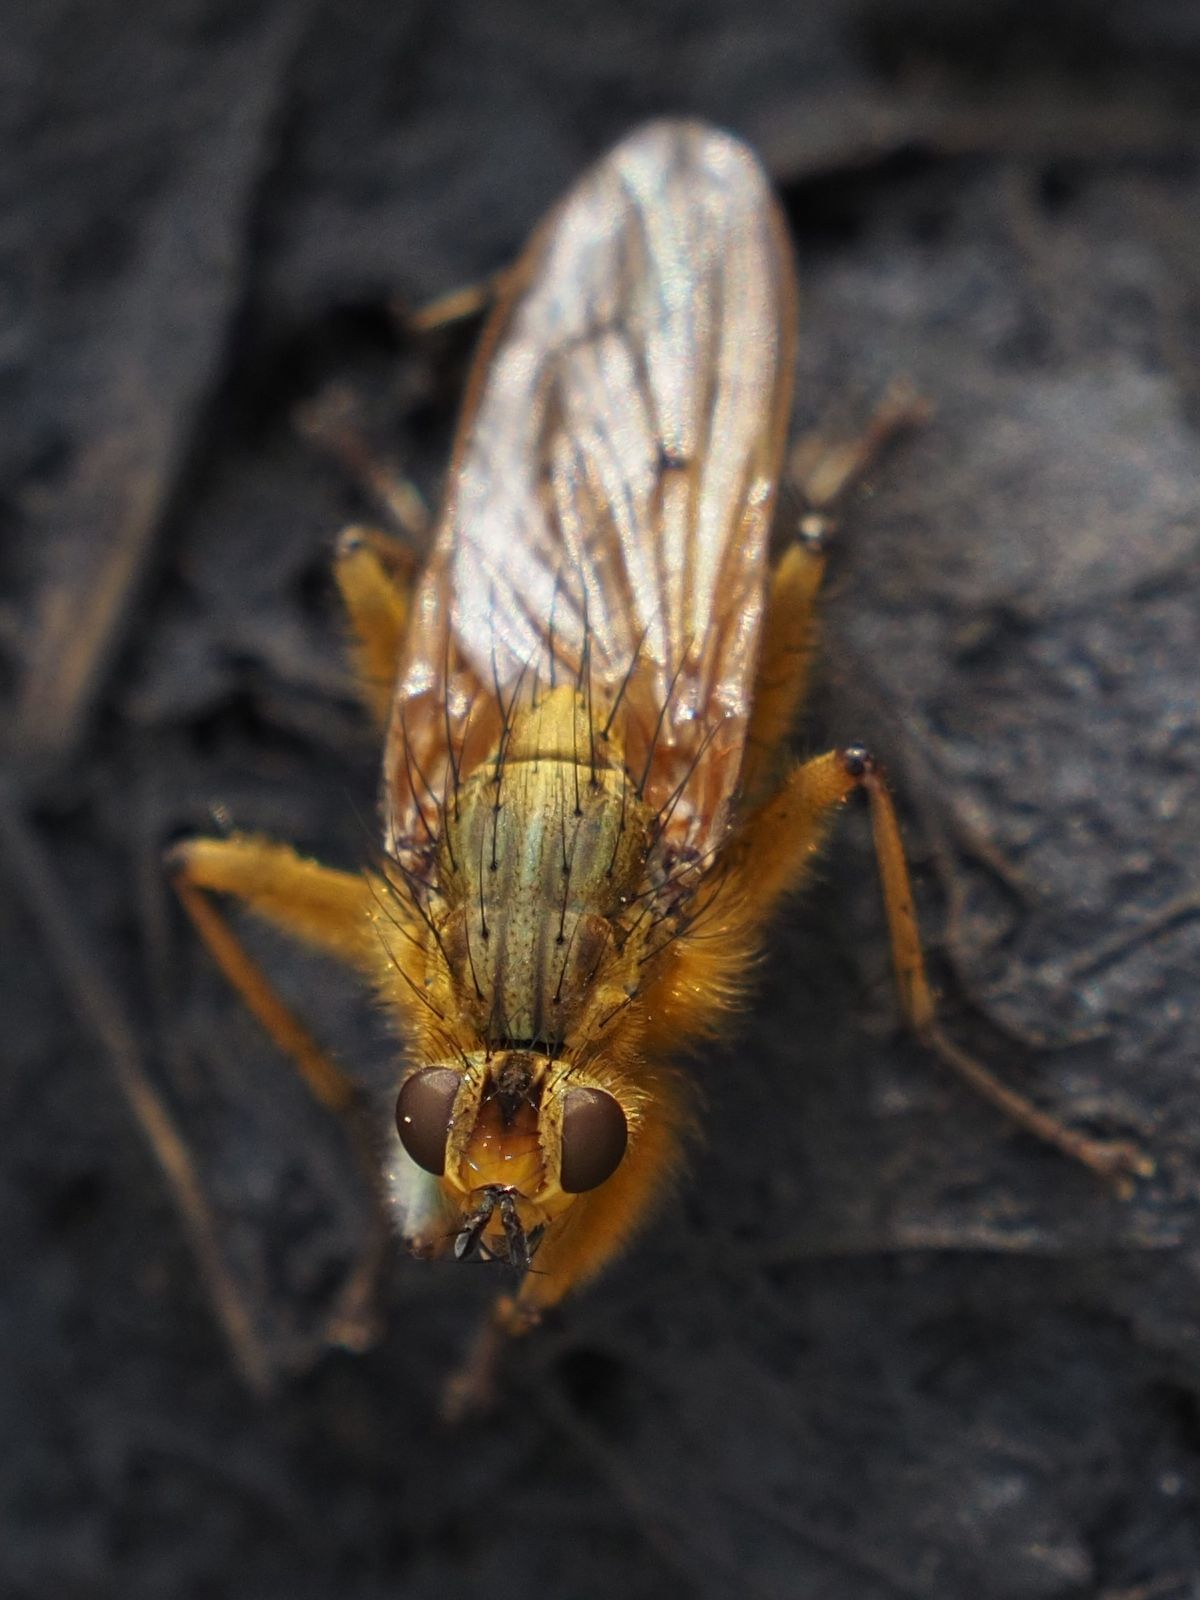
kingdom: Animalia
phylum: Arthropoda
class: Insecta
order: Diptera
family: Scathophagidae
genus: Scathophaga
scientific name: Scathophaga stercoraria
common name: Yellow dung fly
